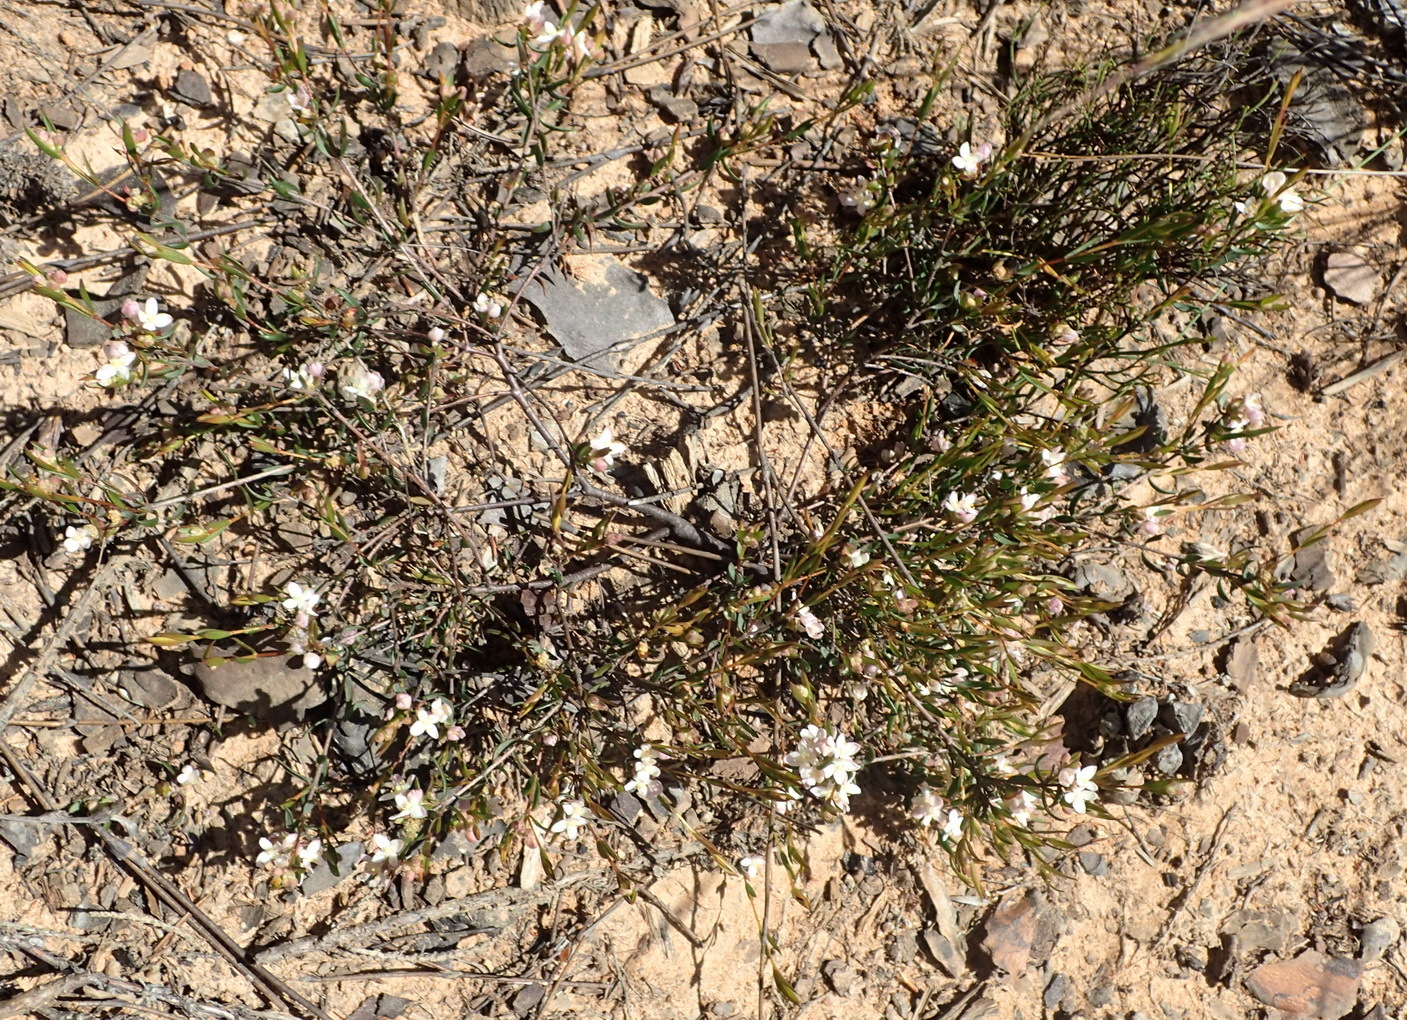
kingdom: Plantae
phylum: Tracheophyta
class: Magnoliopsida
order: Malvales
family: Thymelaeaceae
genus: Lachnaea
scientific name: Lachnaea burchellii
